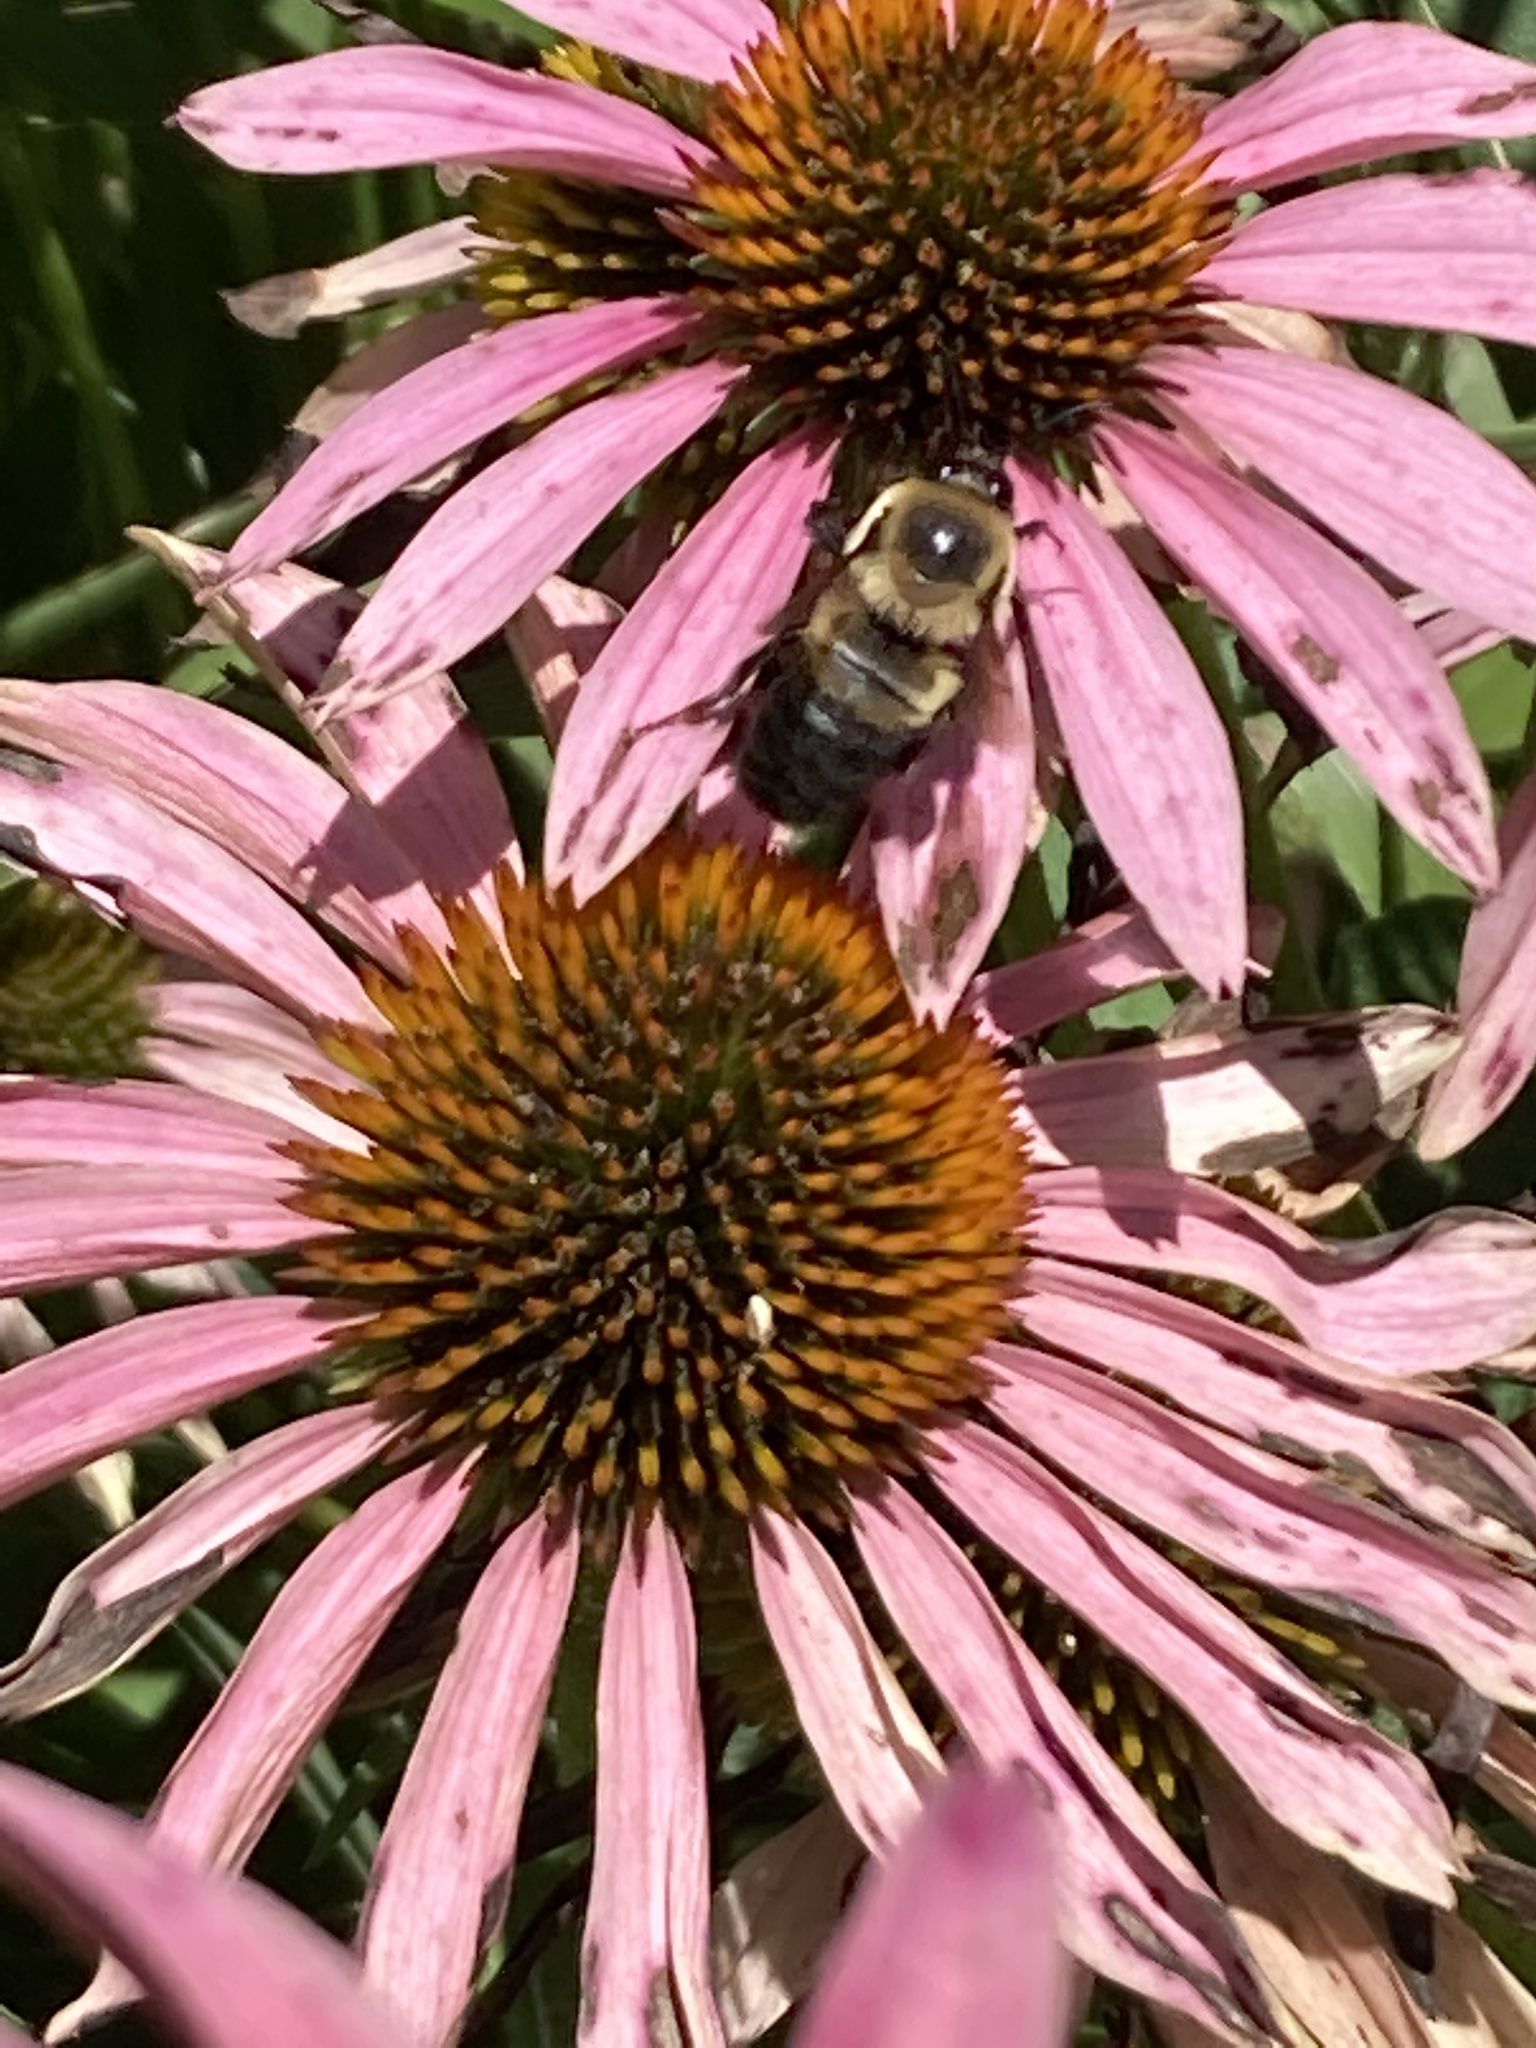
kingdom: Animalia
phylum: Arthropoda
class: Insecta
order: Hymenoptera
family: Apidae
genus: Bombus
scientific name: Bombus griseocollis
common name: Brown-belted bumble bee
